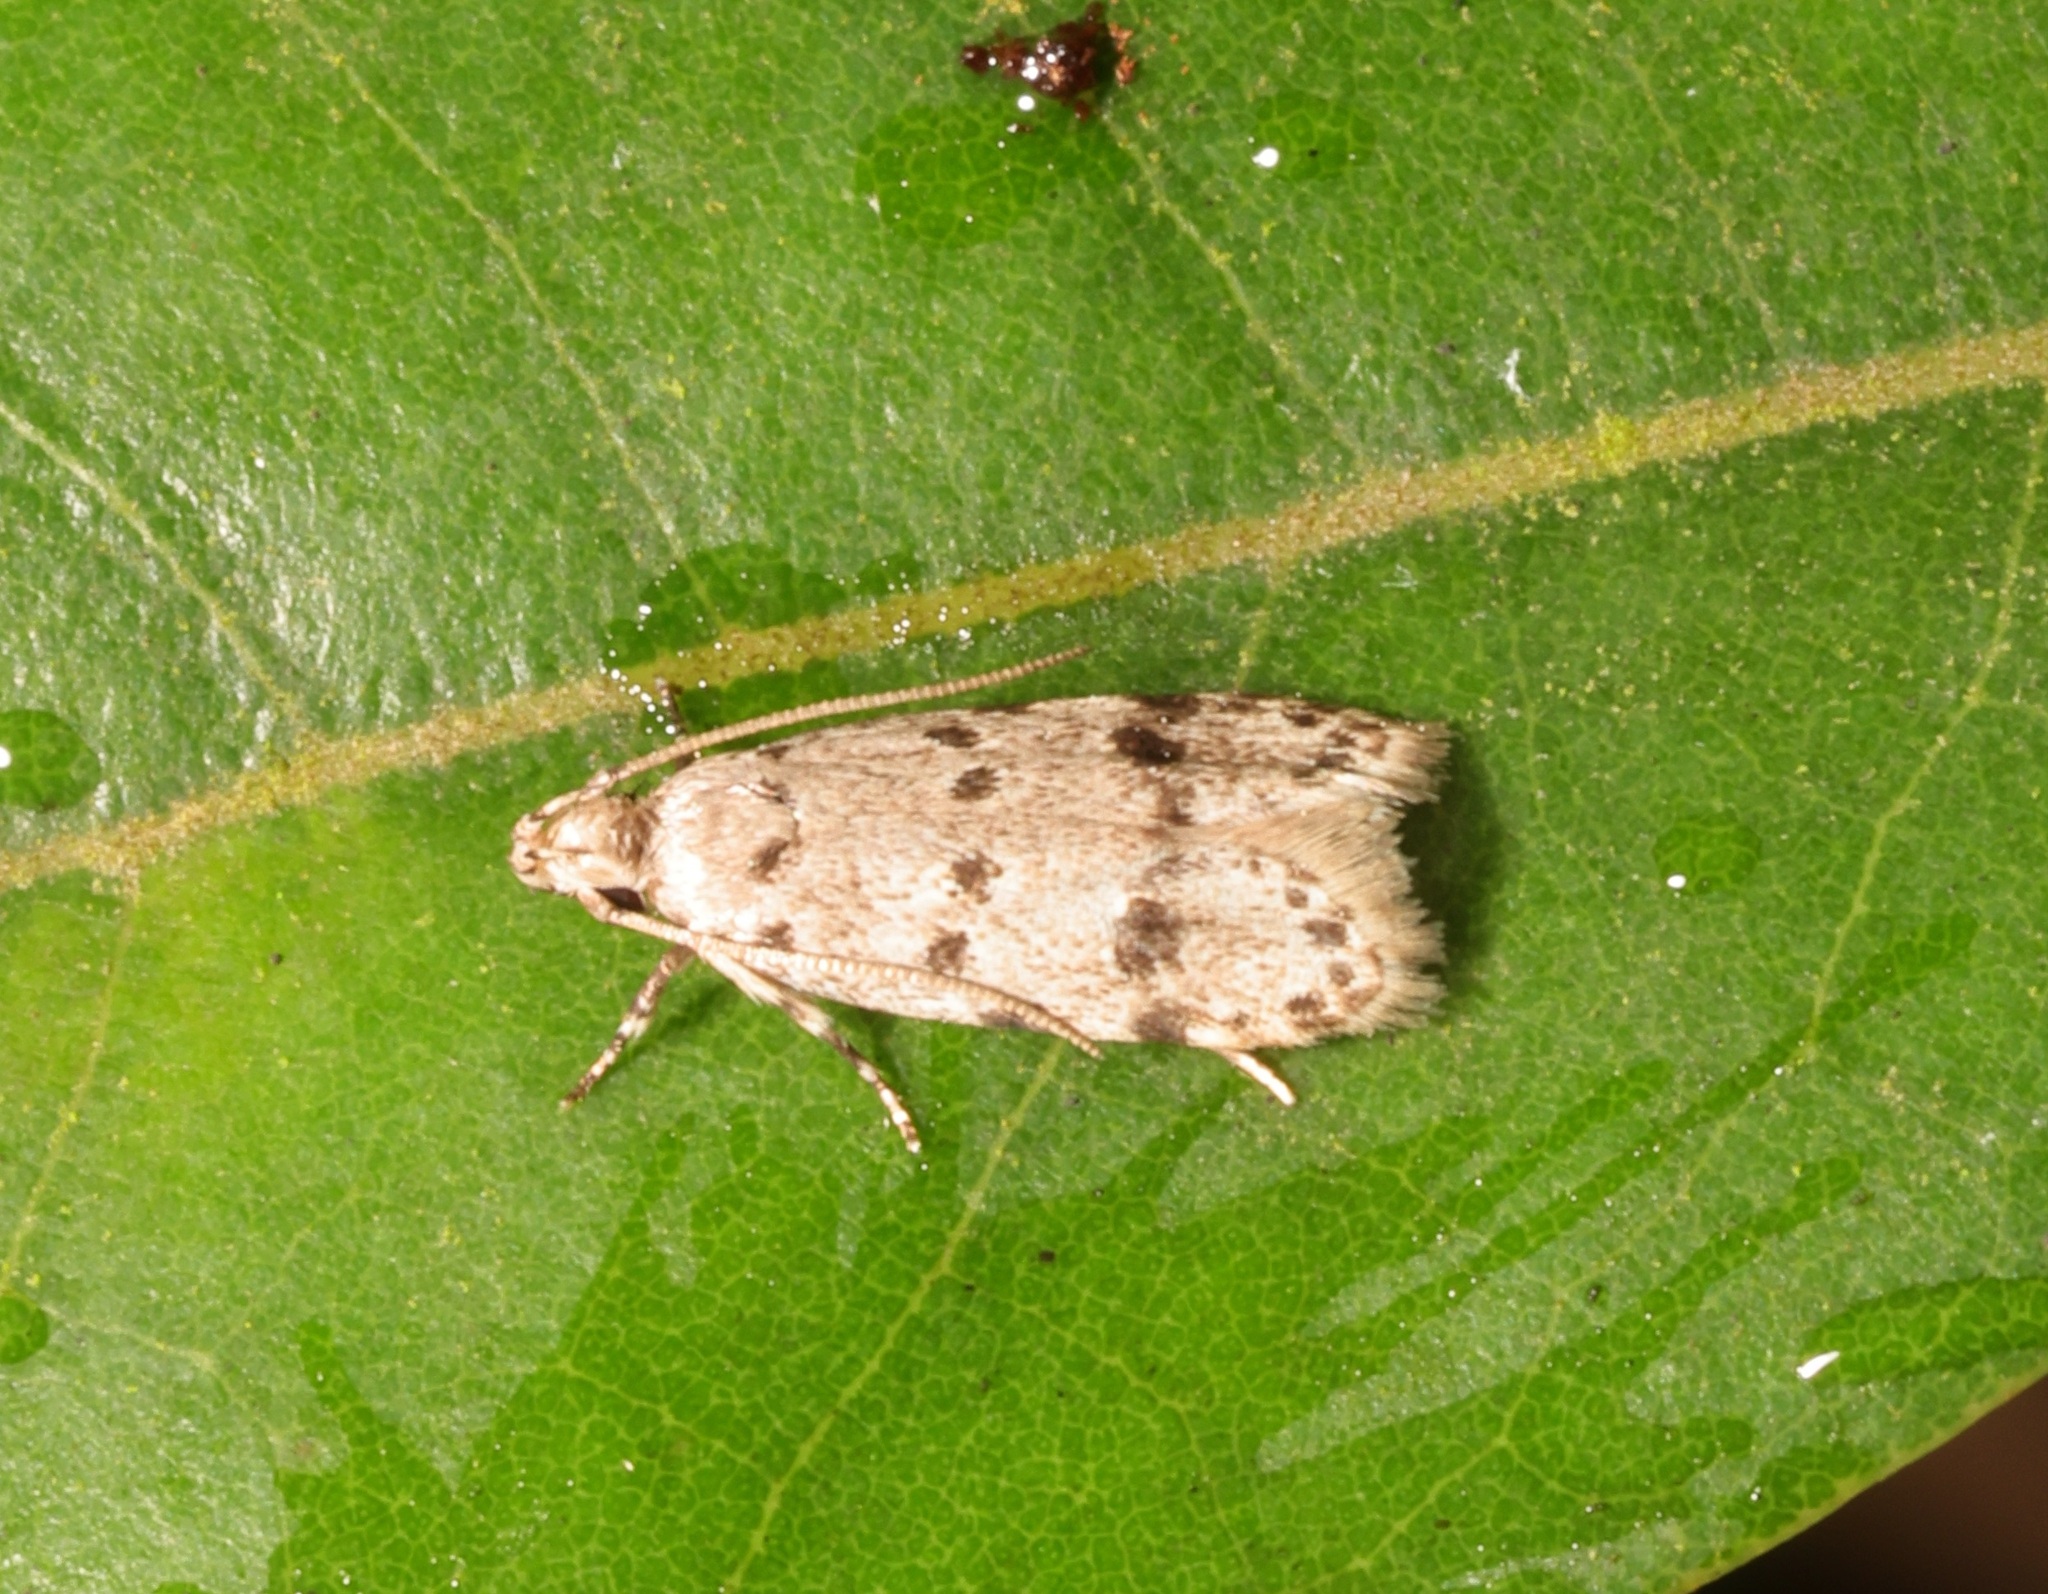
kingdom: Animalia
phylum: Arthropoda
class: Insecta
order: Lepidoptera
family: Autostichidae
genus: Autosticha
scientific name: Autosticha calceata
